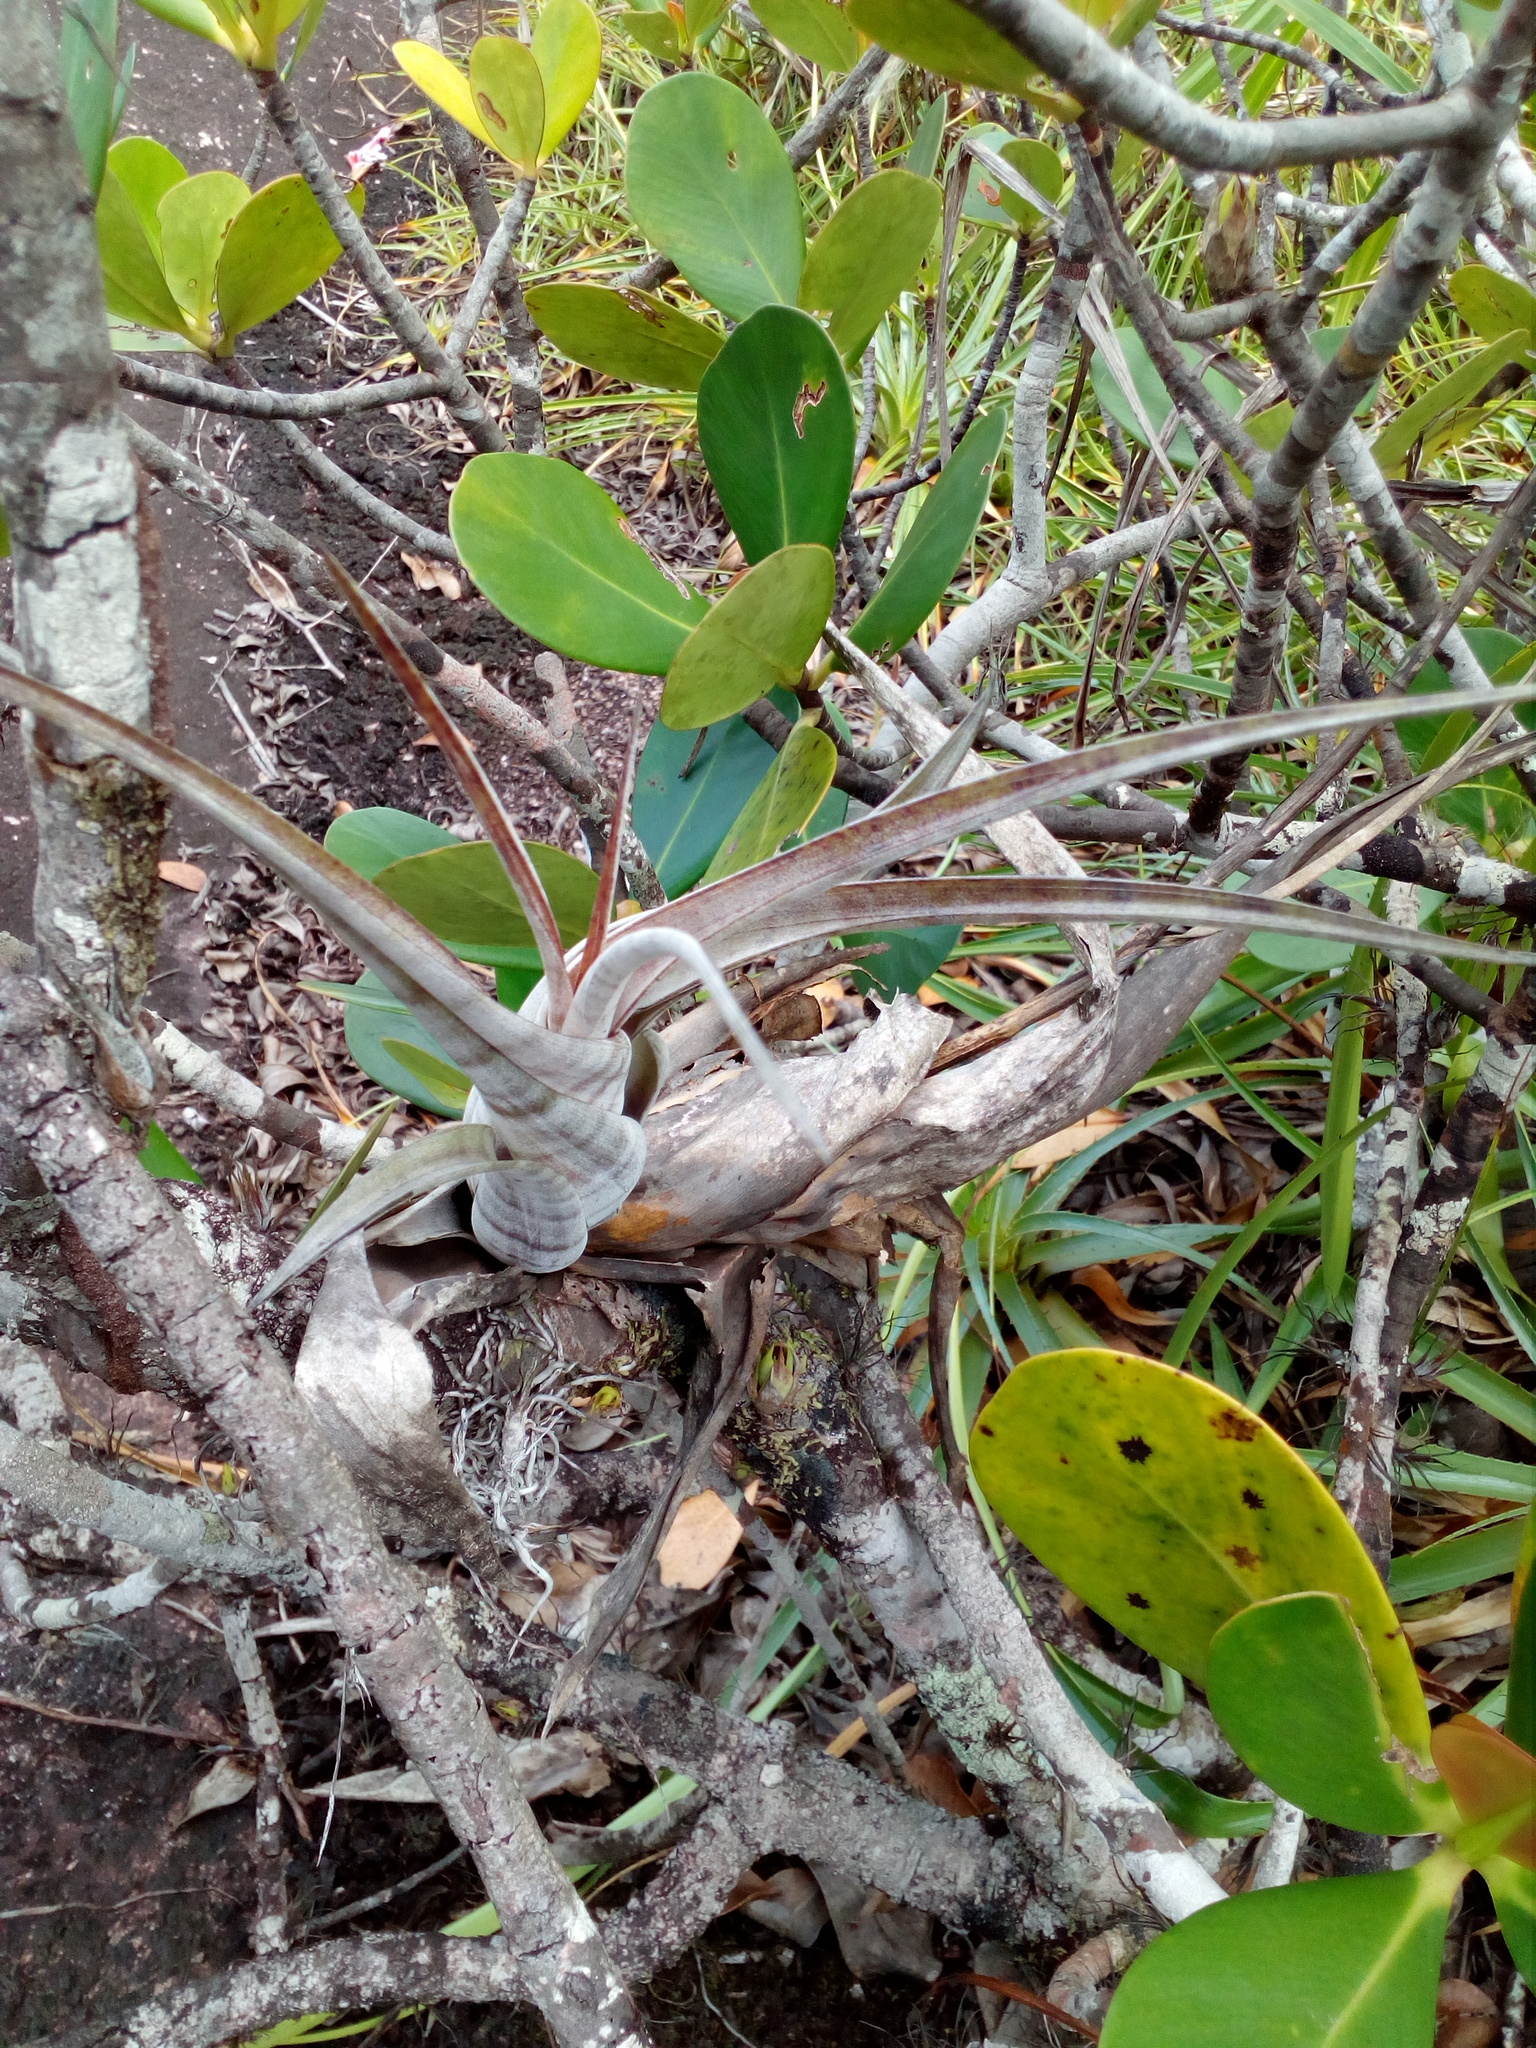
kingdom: Plantae
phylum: Tracheophyta
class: Liliopsida
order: Poales
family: Bromeliaceae
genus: Tillandsia
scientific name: Tillandsia flexuosa
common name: Banded airplant
